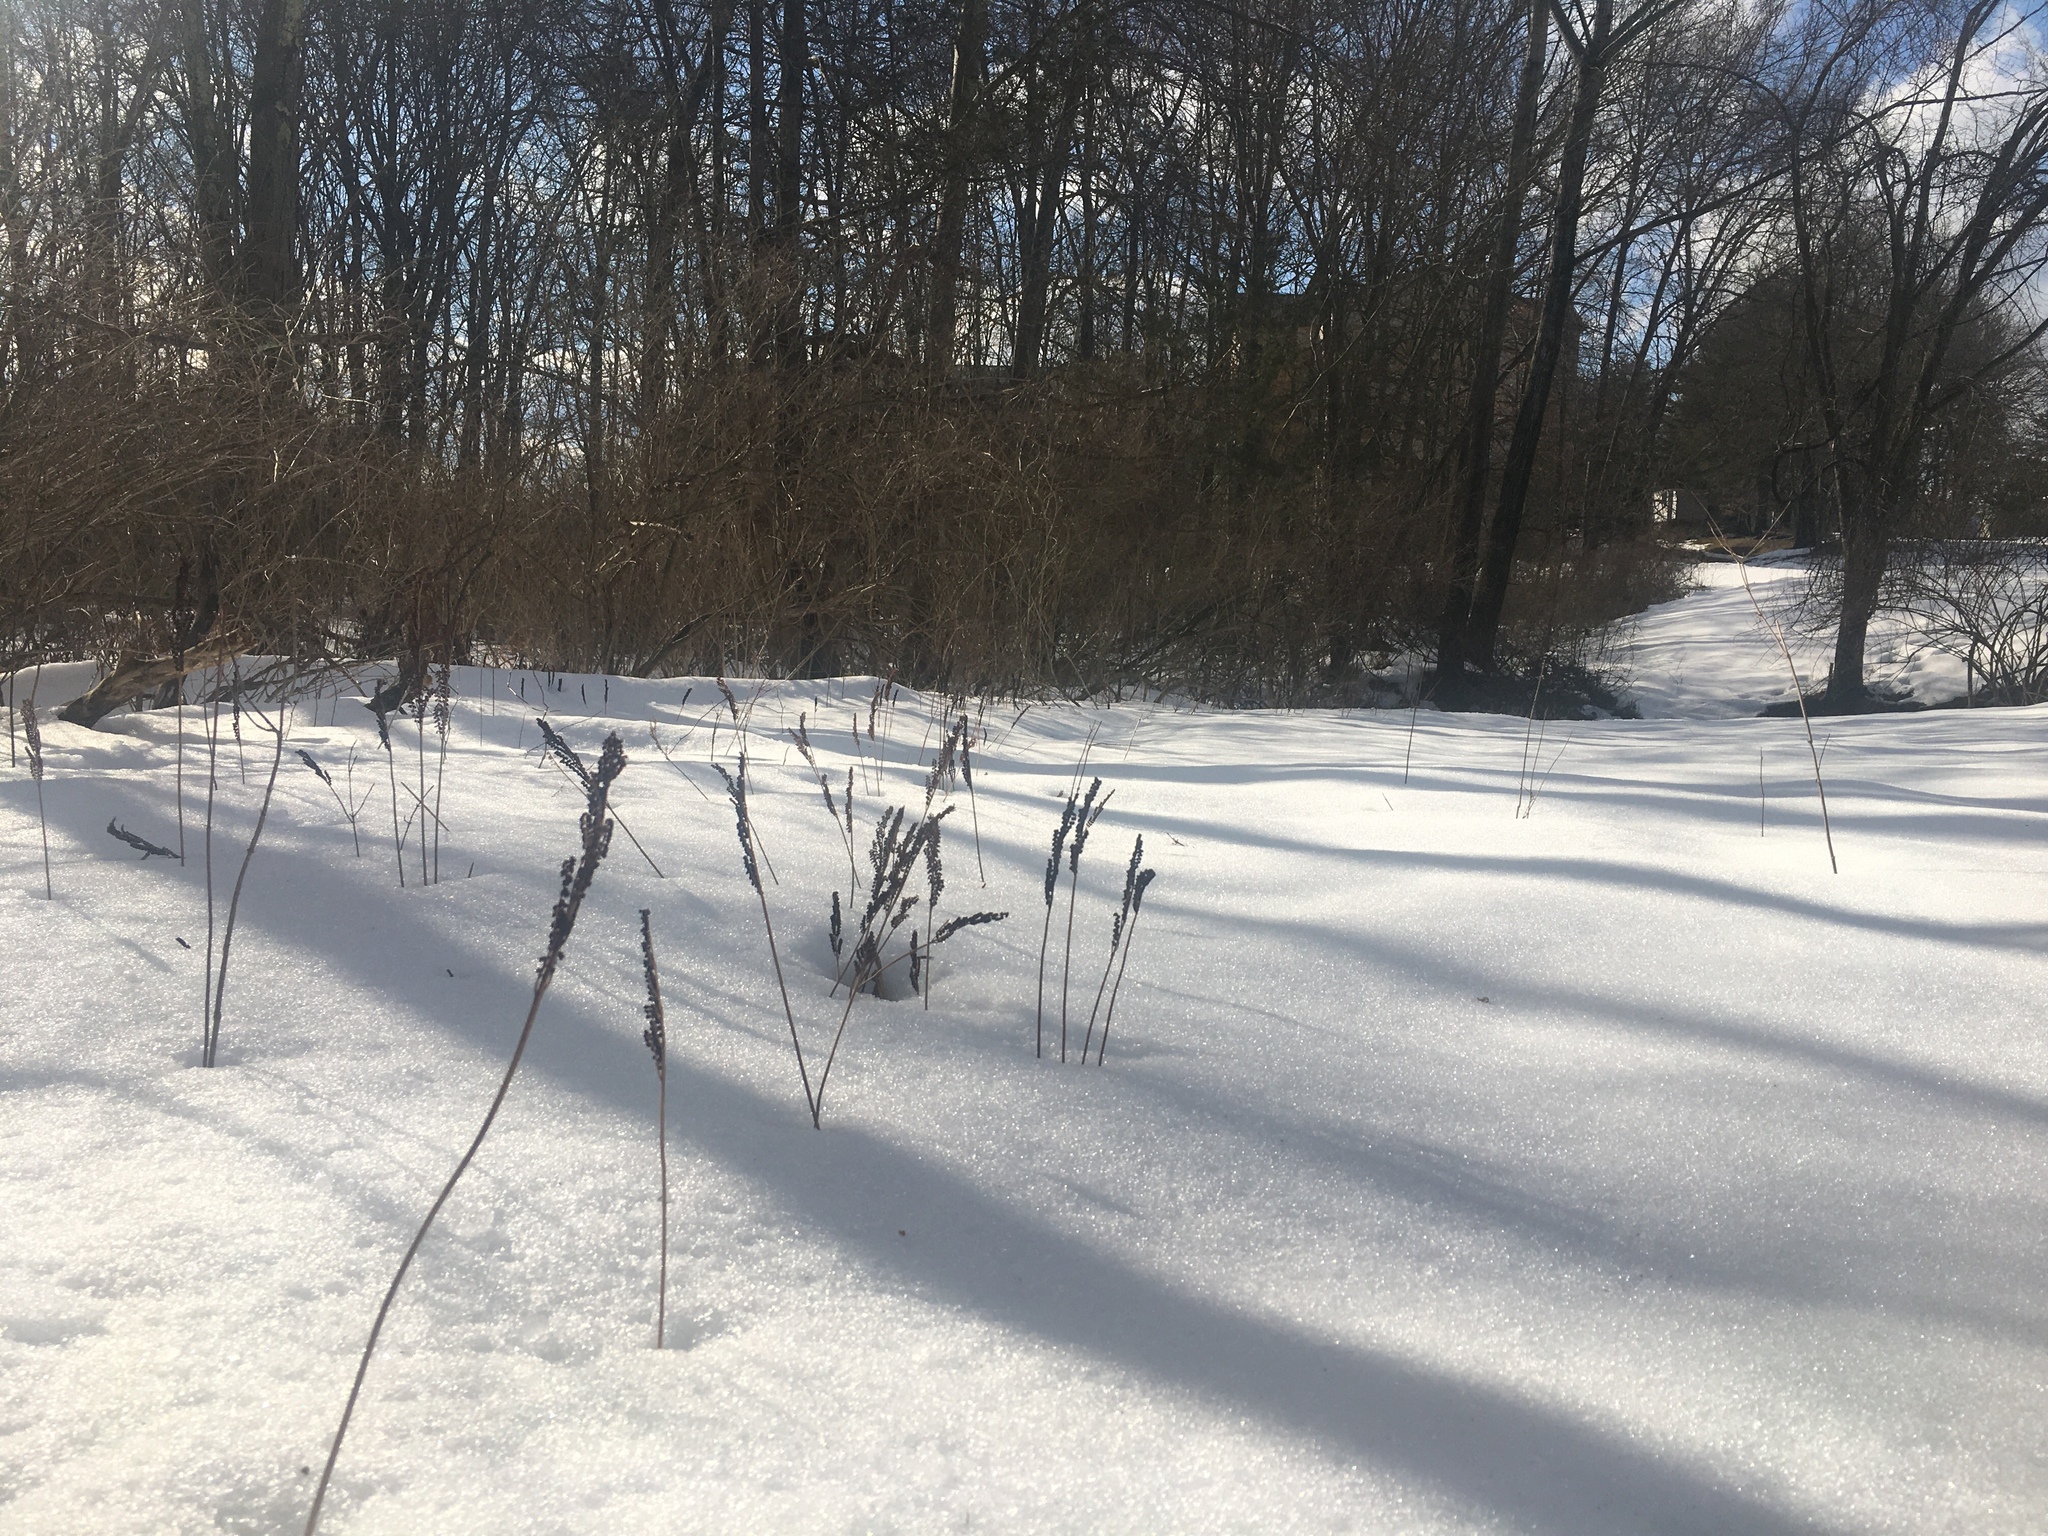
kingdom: Plantae
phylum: Tracheophyta
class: Polypodiopsida
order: Polypodiales
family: Onocleaceae
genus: Onoclea
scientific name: Onoclea sensibilis
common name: Sensitive fern
